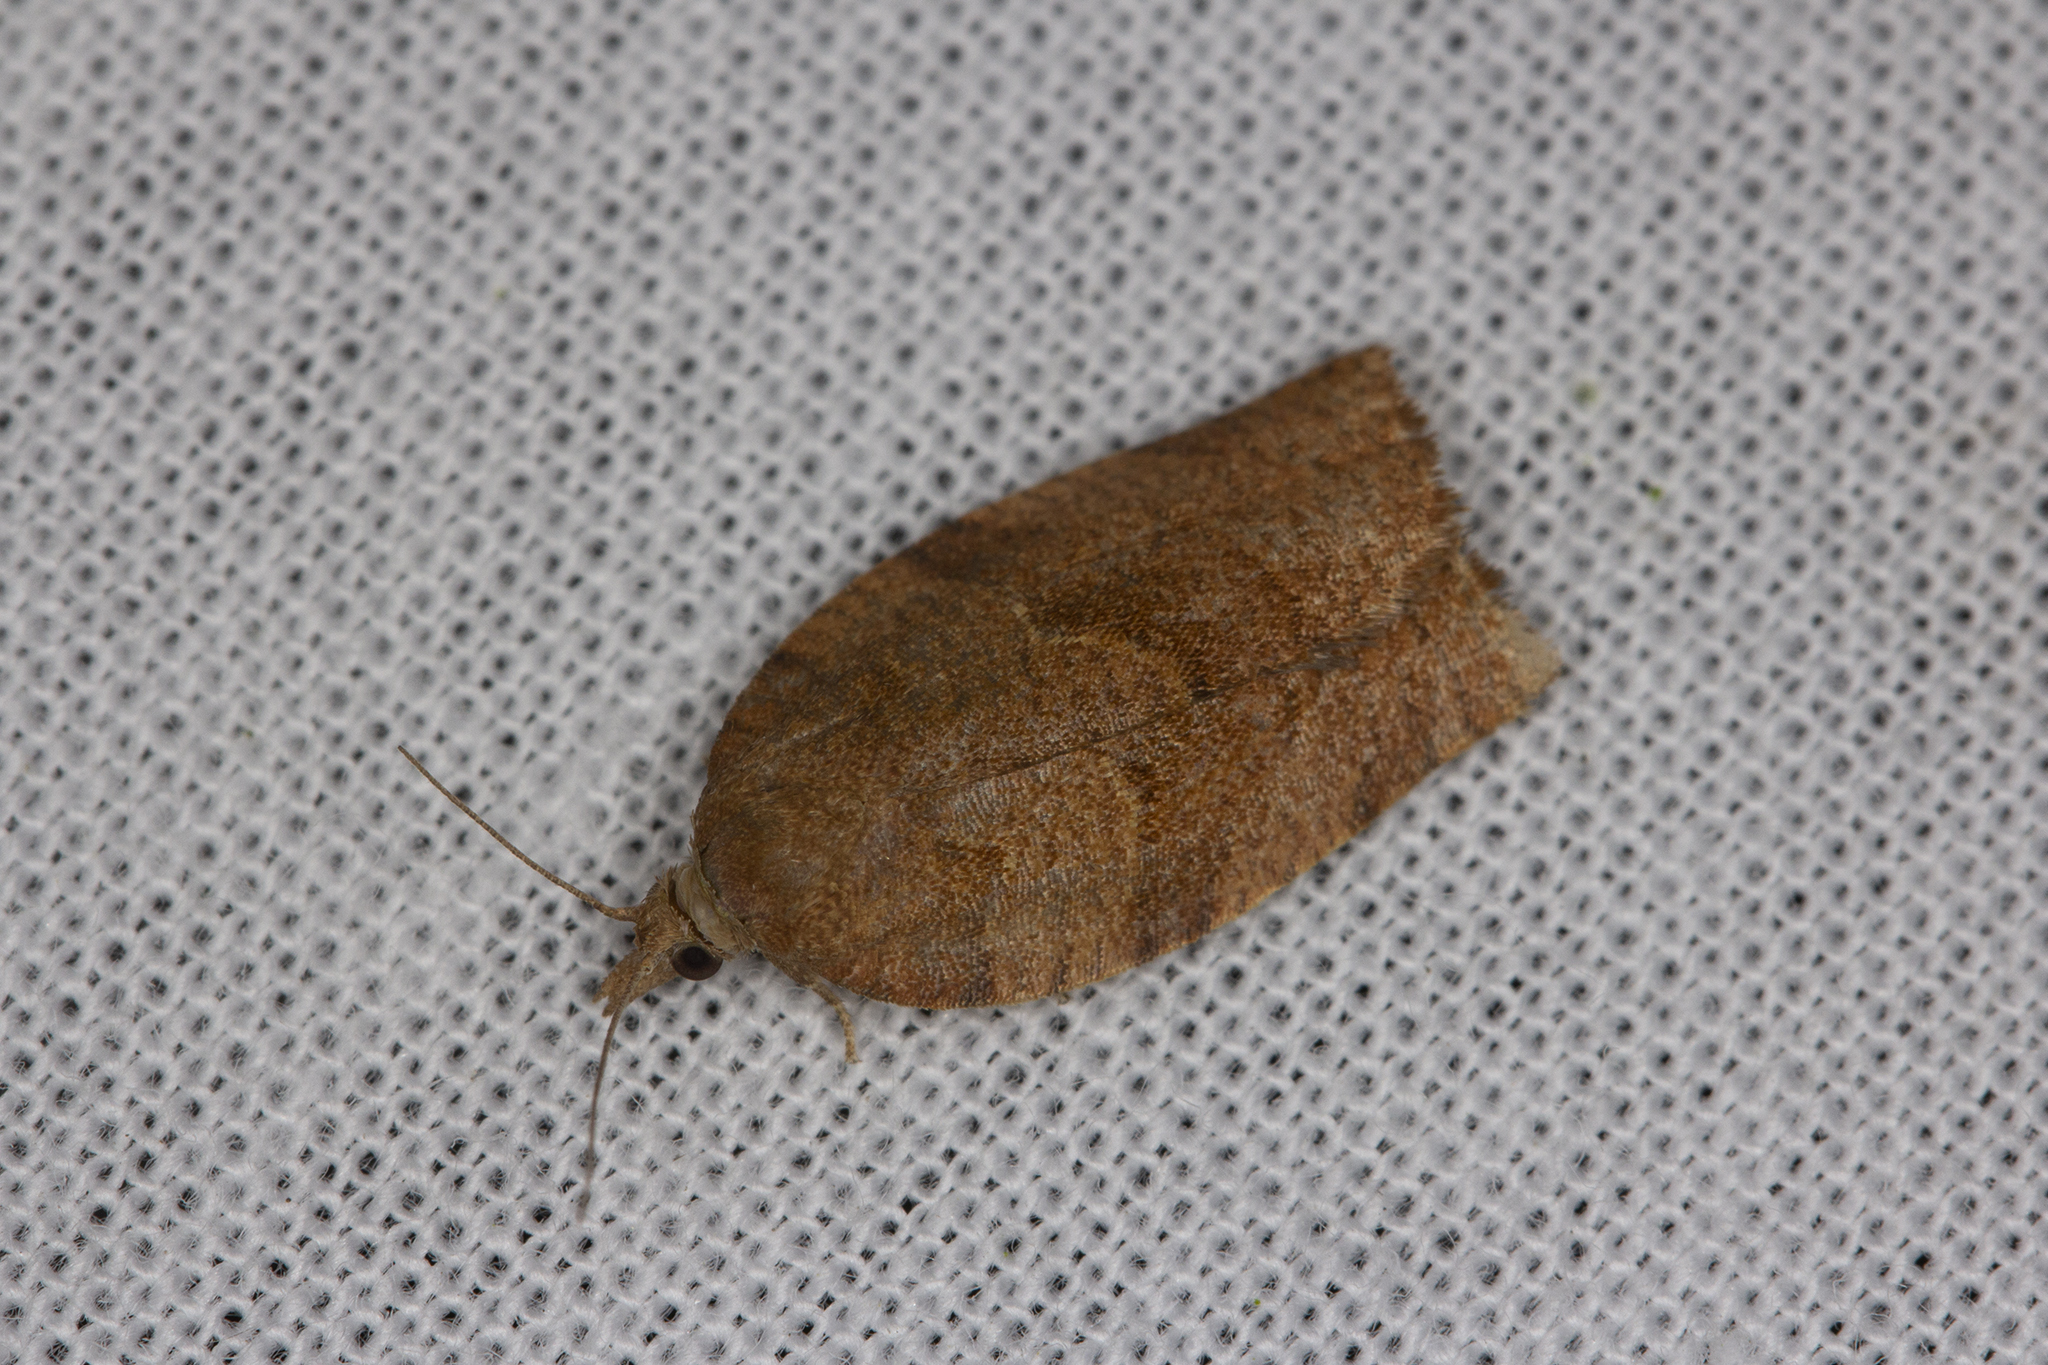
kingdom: Animalia
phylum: Arthropoda
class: Insecta
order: Lepidoptera
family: Tortricidae
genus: Pandemis
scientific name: Pandemis heparana
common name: Dark fruit-tree tortrix
